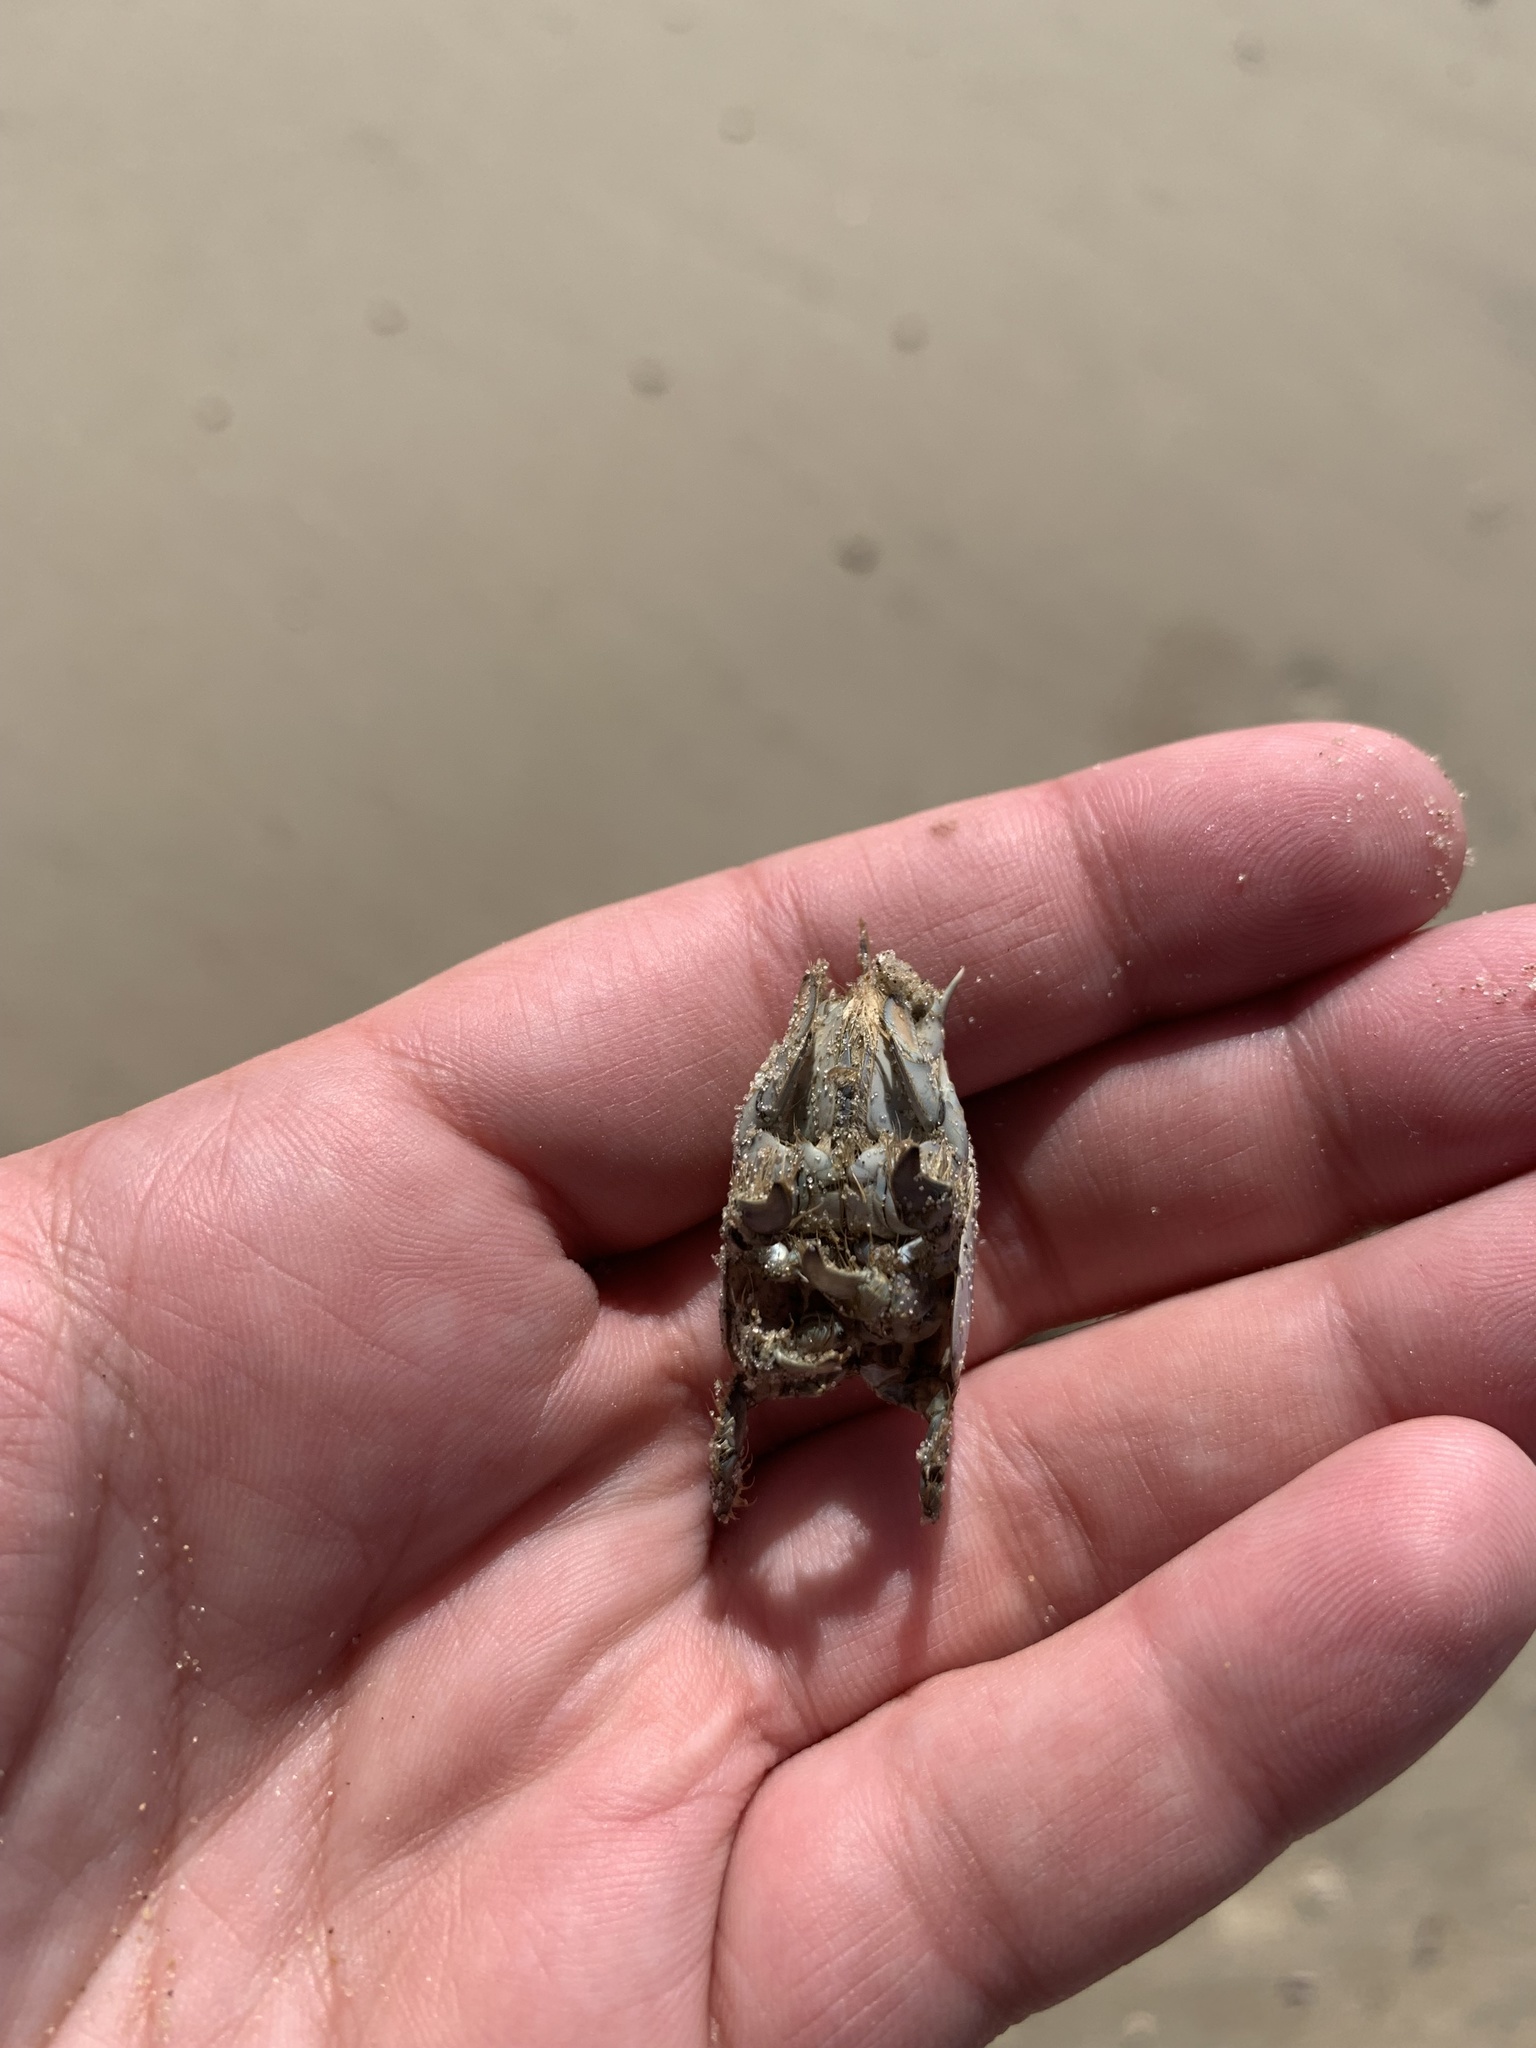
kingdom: Animalia
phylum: Arthropoda
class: Malacostraca
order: Decapoda
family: Hippidae
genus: Emerita
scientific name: Emerita brasiliensis
